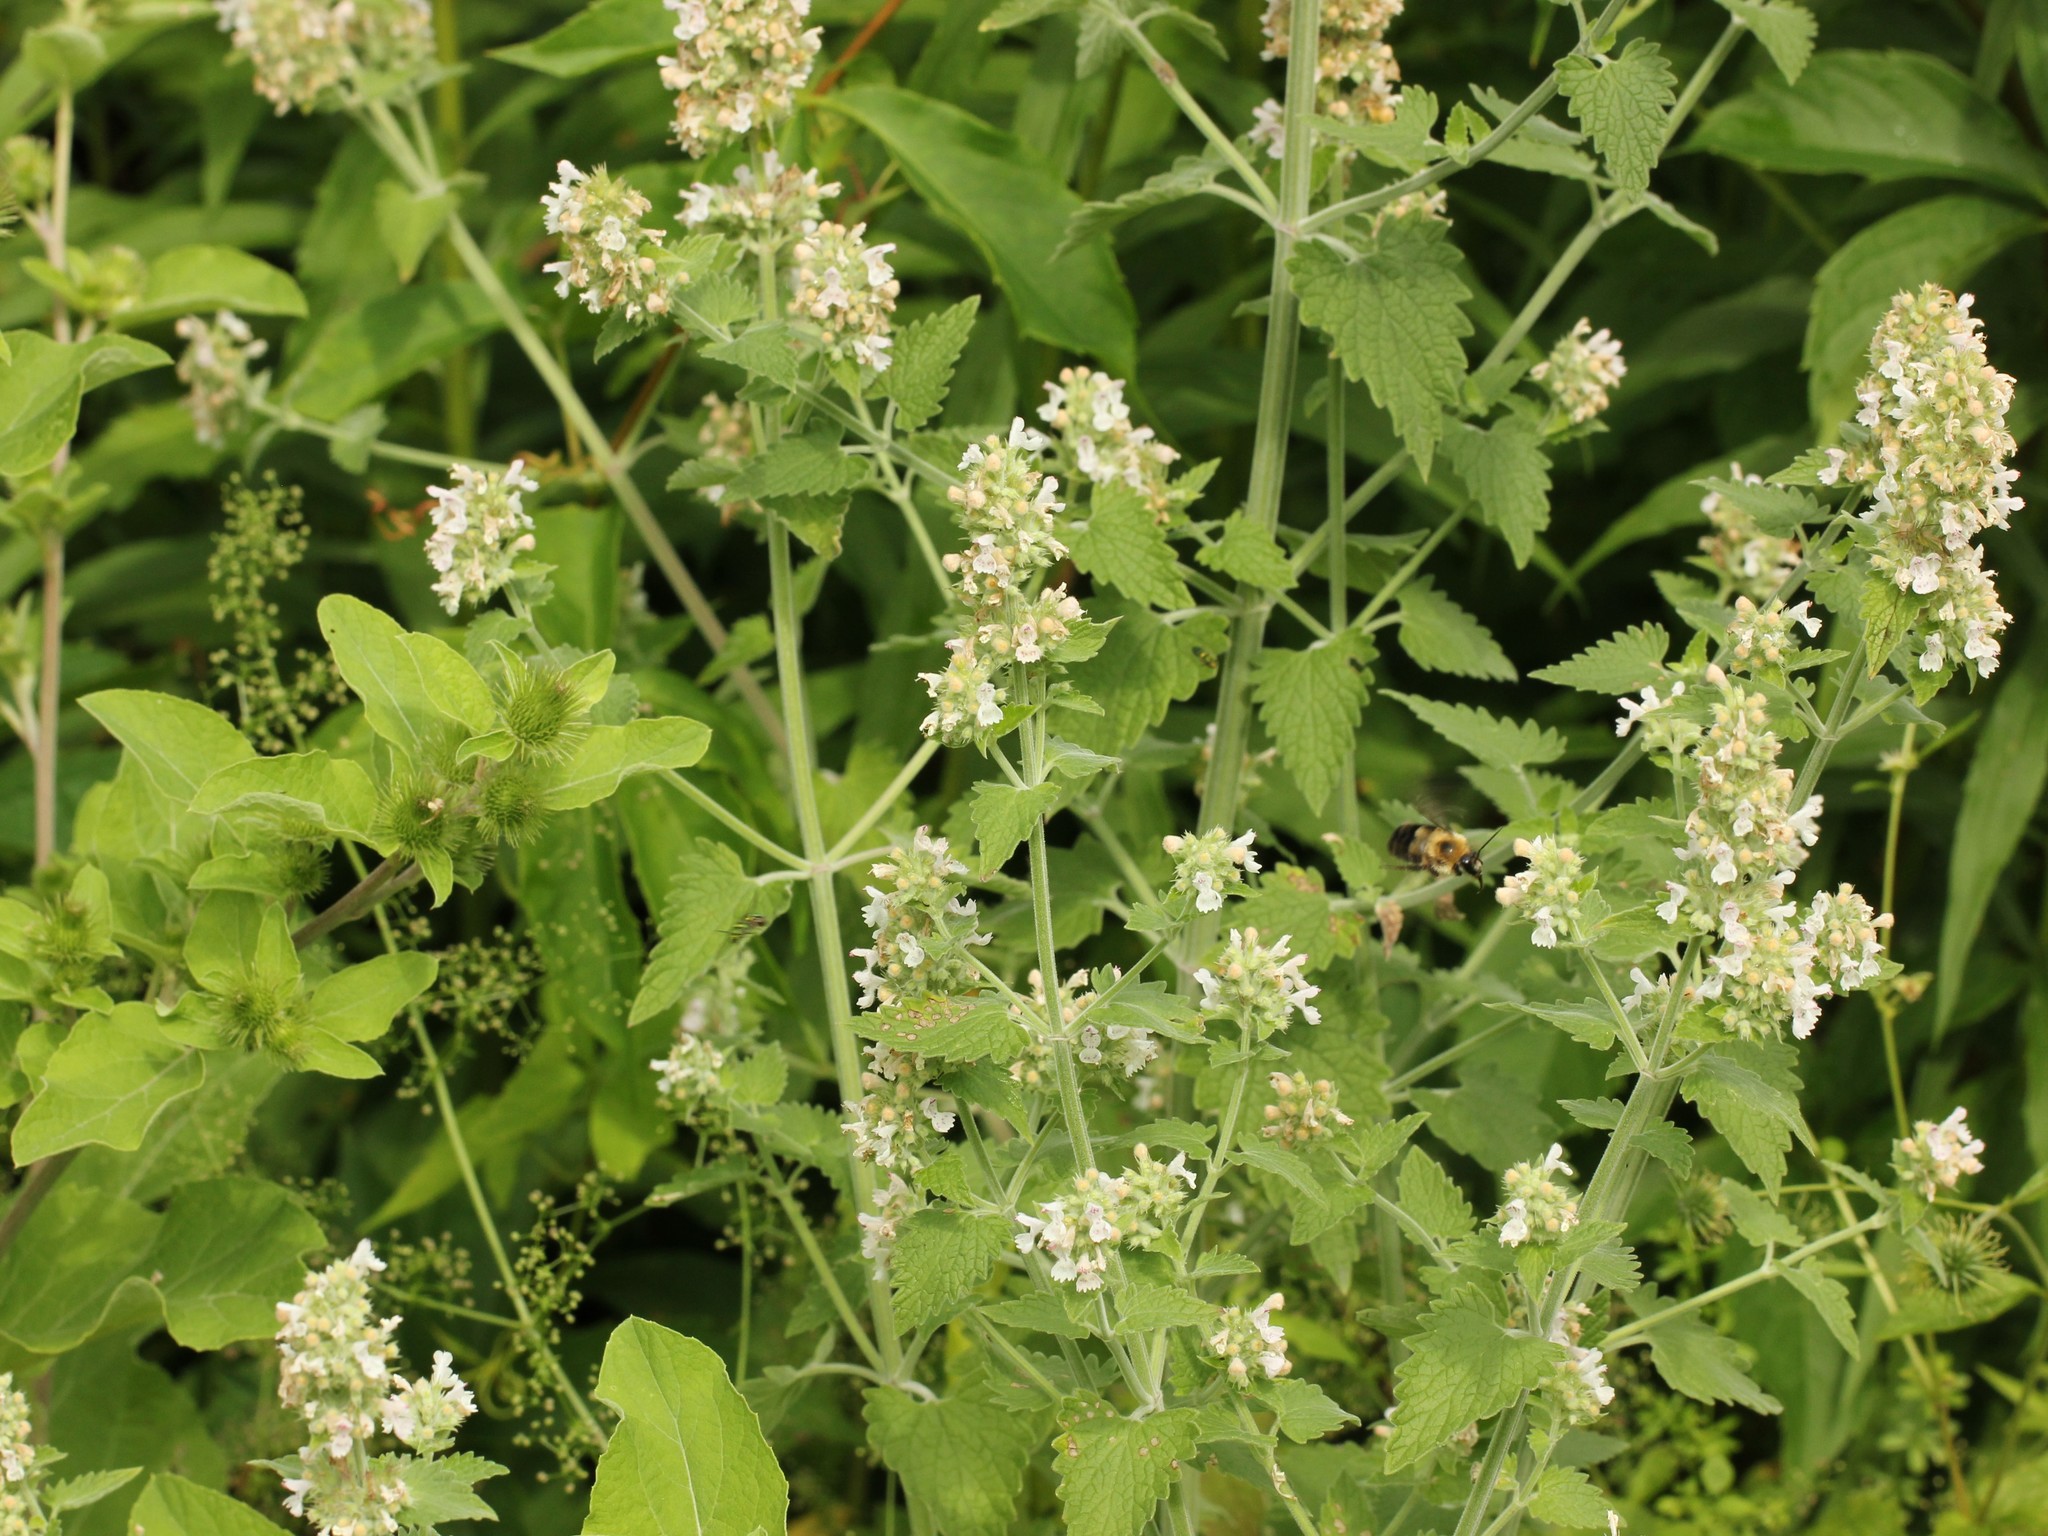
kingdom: Plantae
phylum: Tracheophyta
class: Magnoliopsida
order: Lamiales
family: Lamiaceae
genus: Nepeta
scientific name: Nepeta cataria
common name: Catnip
